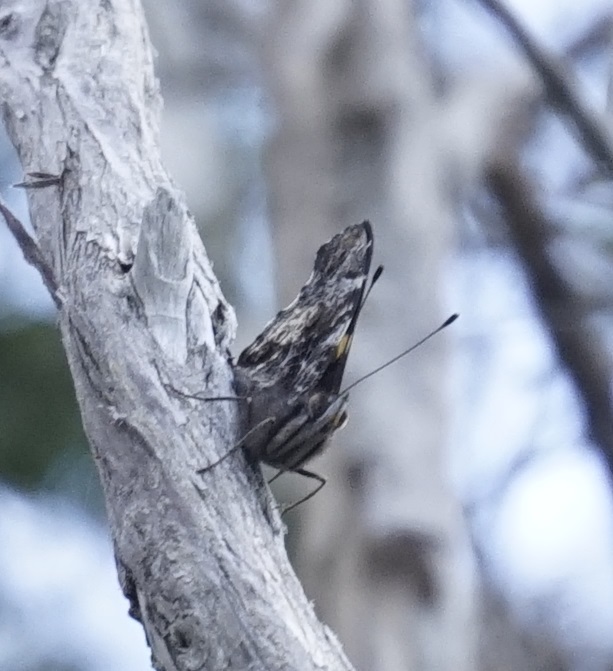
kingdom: Animalia
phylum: Arthropoda
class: Insecta
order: Lepidoptera
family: Nymphalidae
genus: Vanessa
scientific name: Vanessa itea
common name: Yellow admiral
